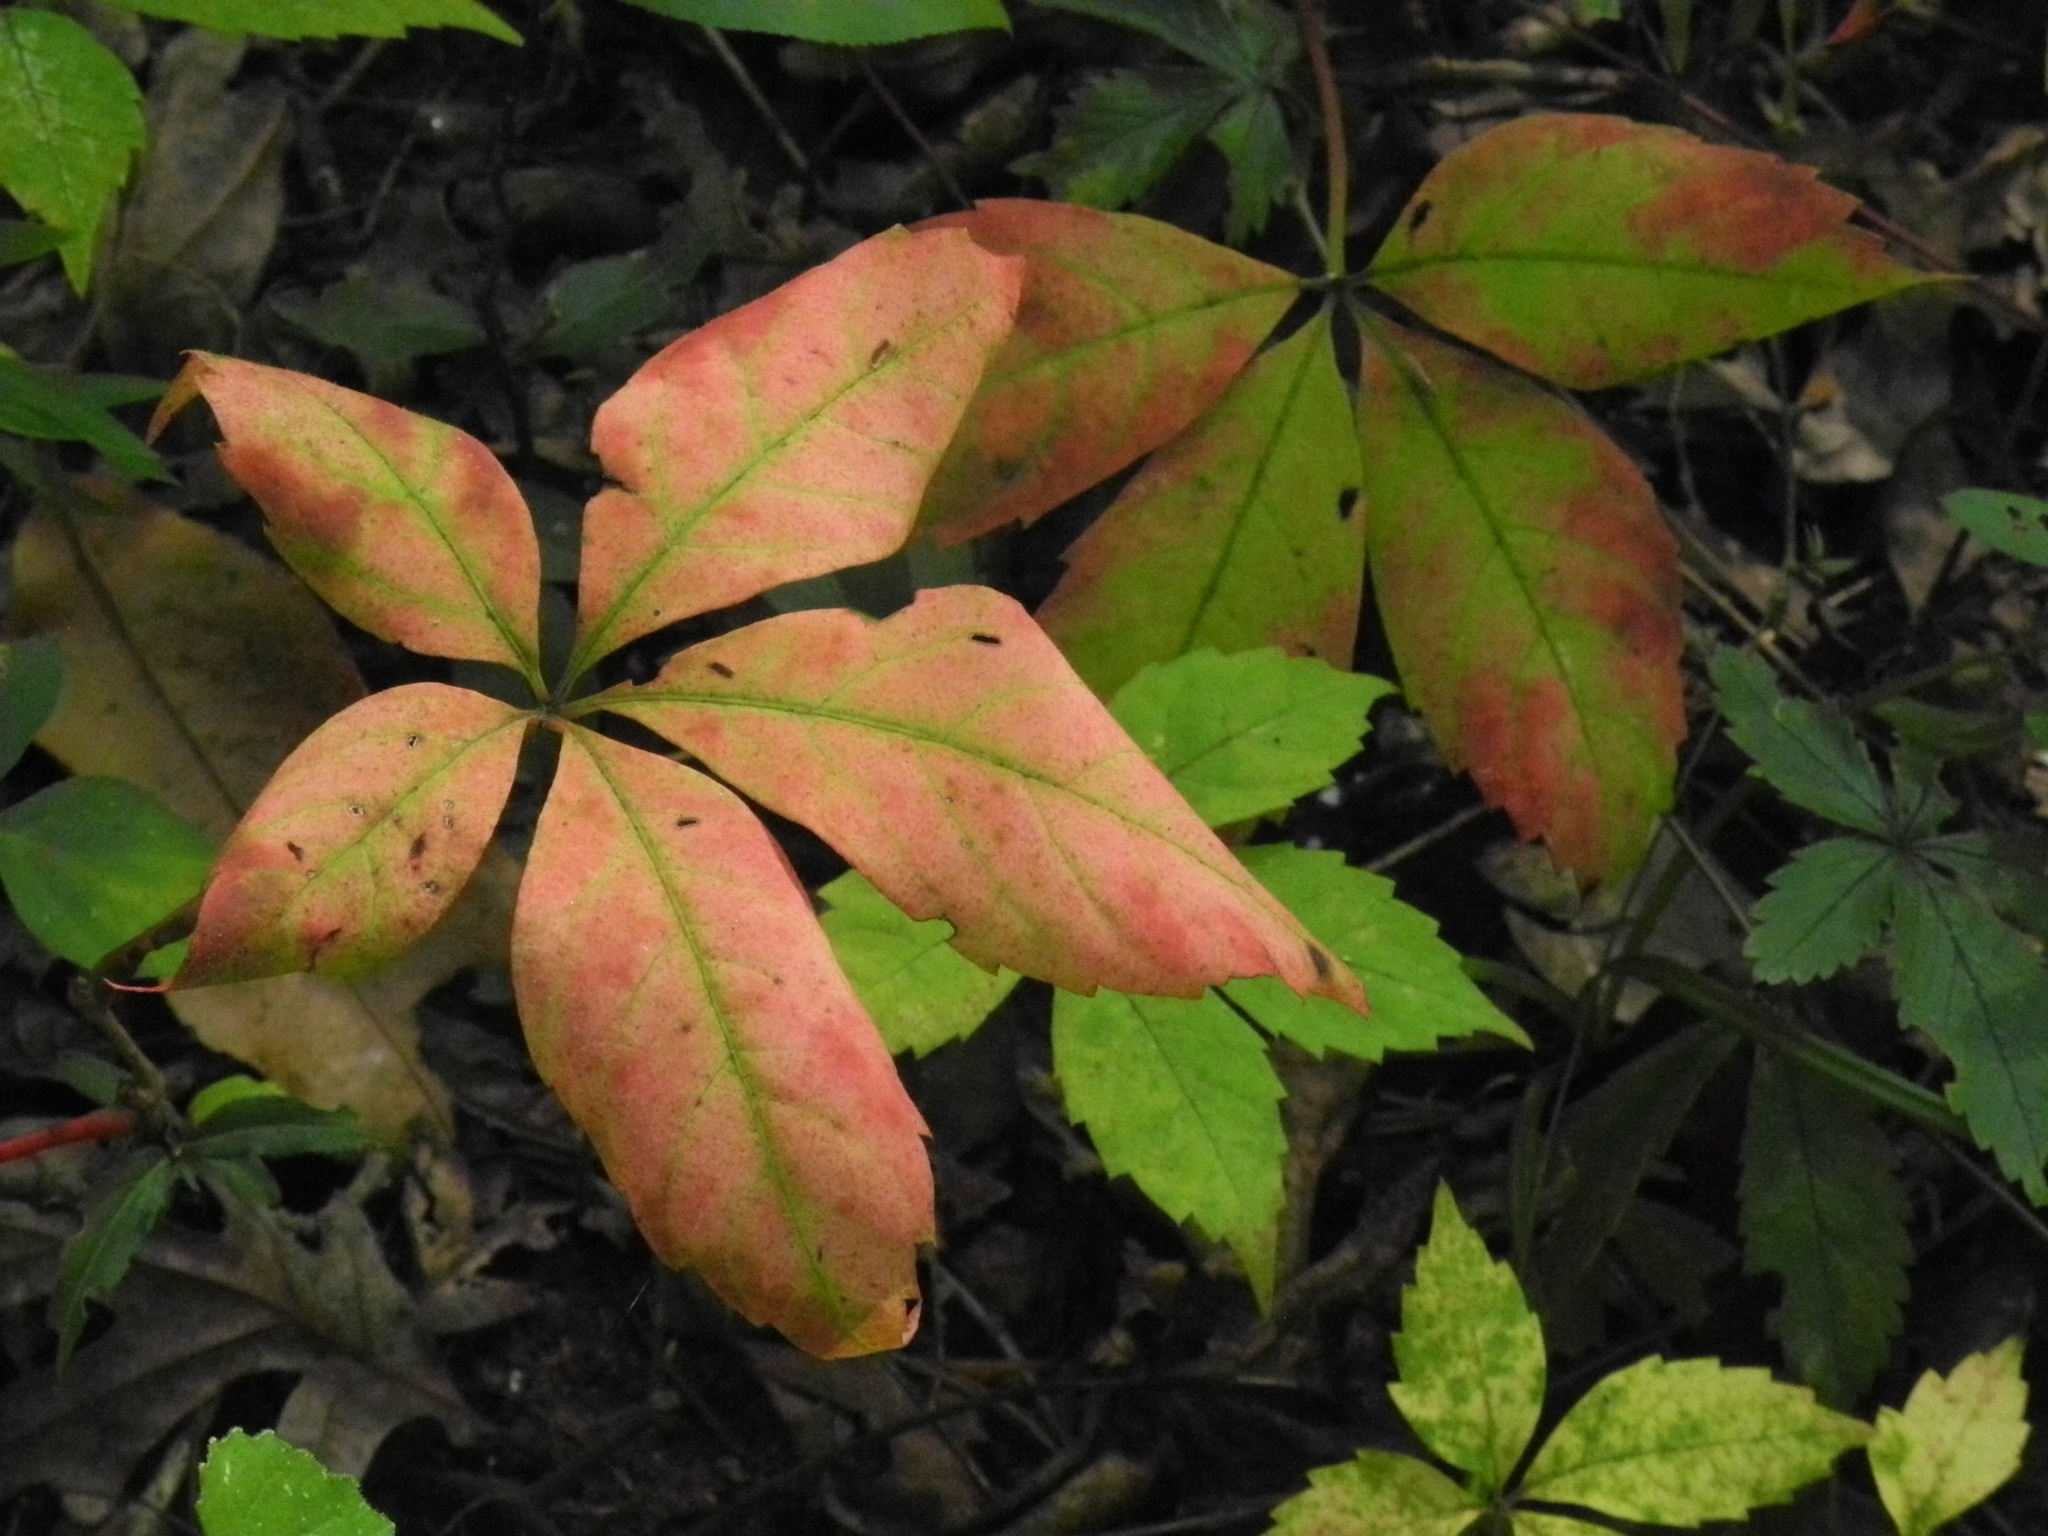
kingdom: Plantae
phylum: Tracheophyta
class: Magnoliopsida
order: Vitales
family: Vitaceae
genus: Parthenocissus
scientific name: Parthenocissus quinquefolia
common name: Virginia-creeper
